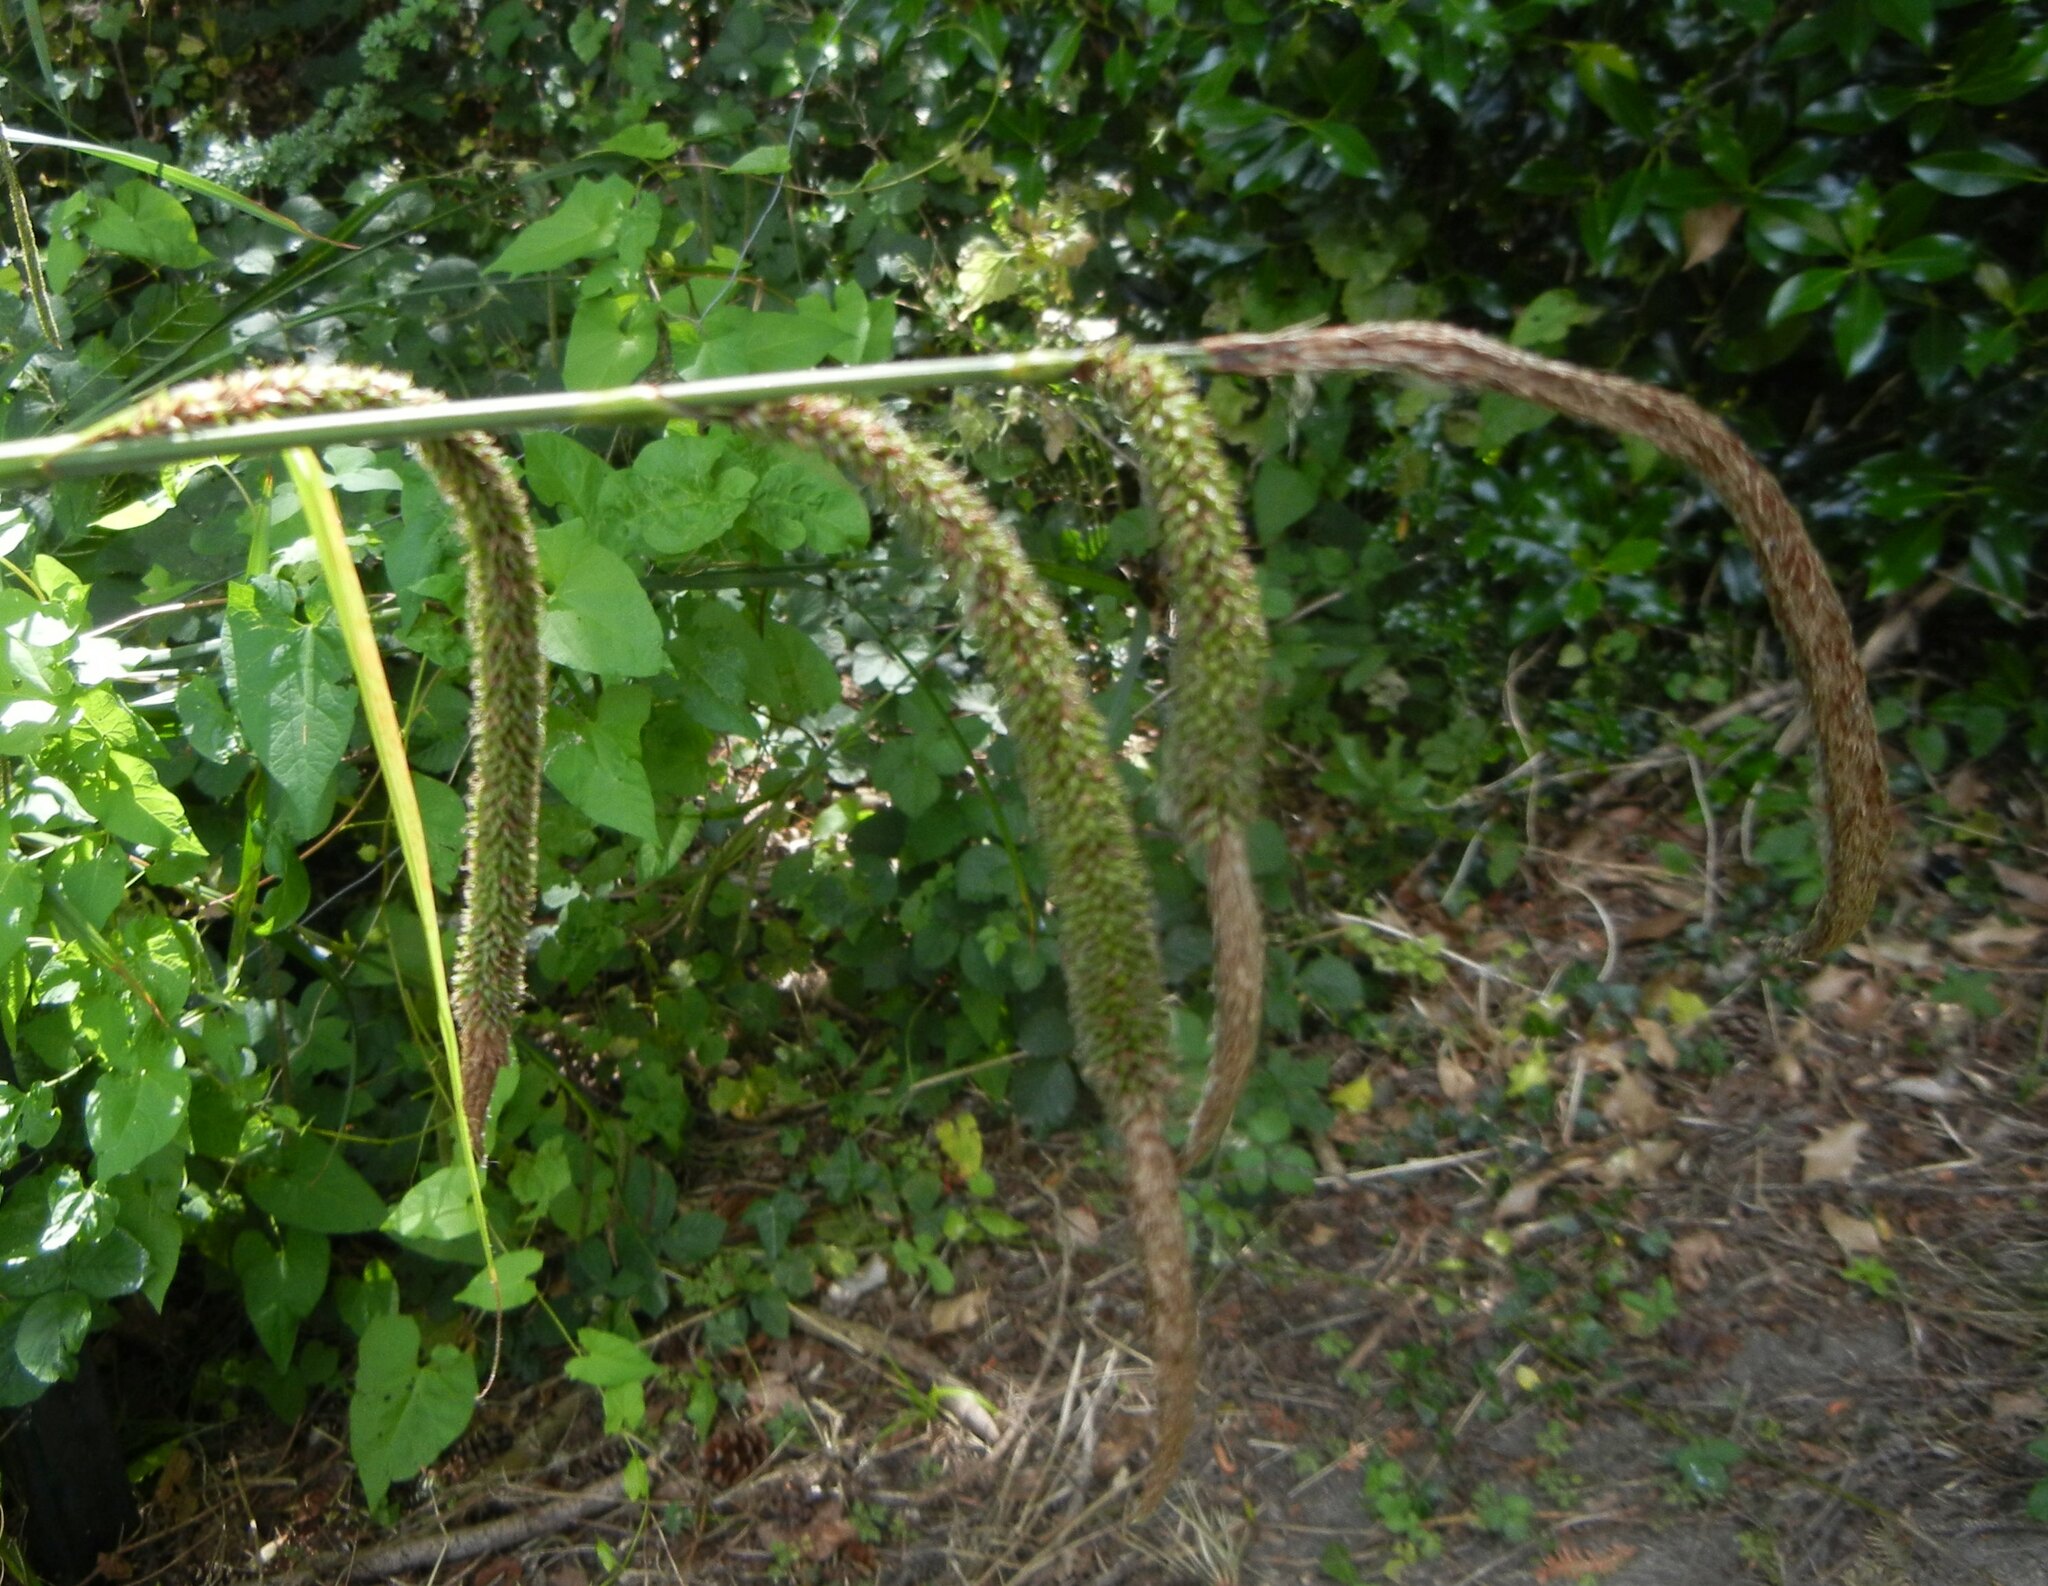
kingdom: Plantae
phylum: Tracheophyta
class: Liliopsida
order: Poales
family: Cyperaceae
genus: Carex
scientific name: Carex pendula
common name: Pendulous sedge
